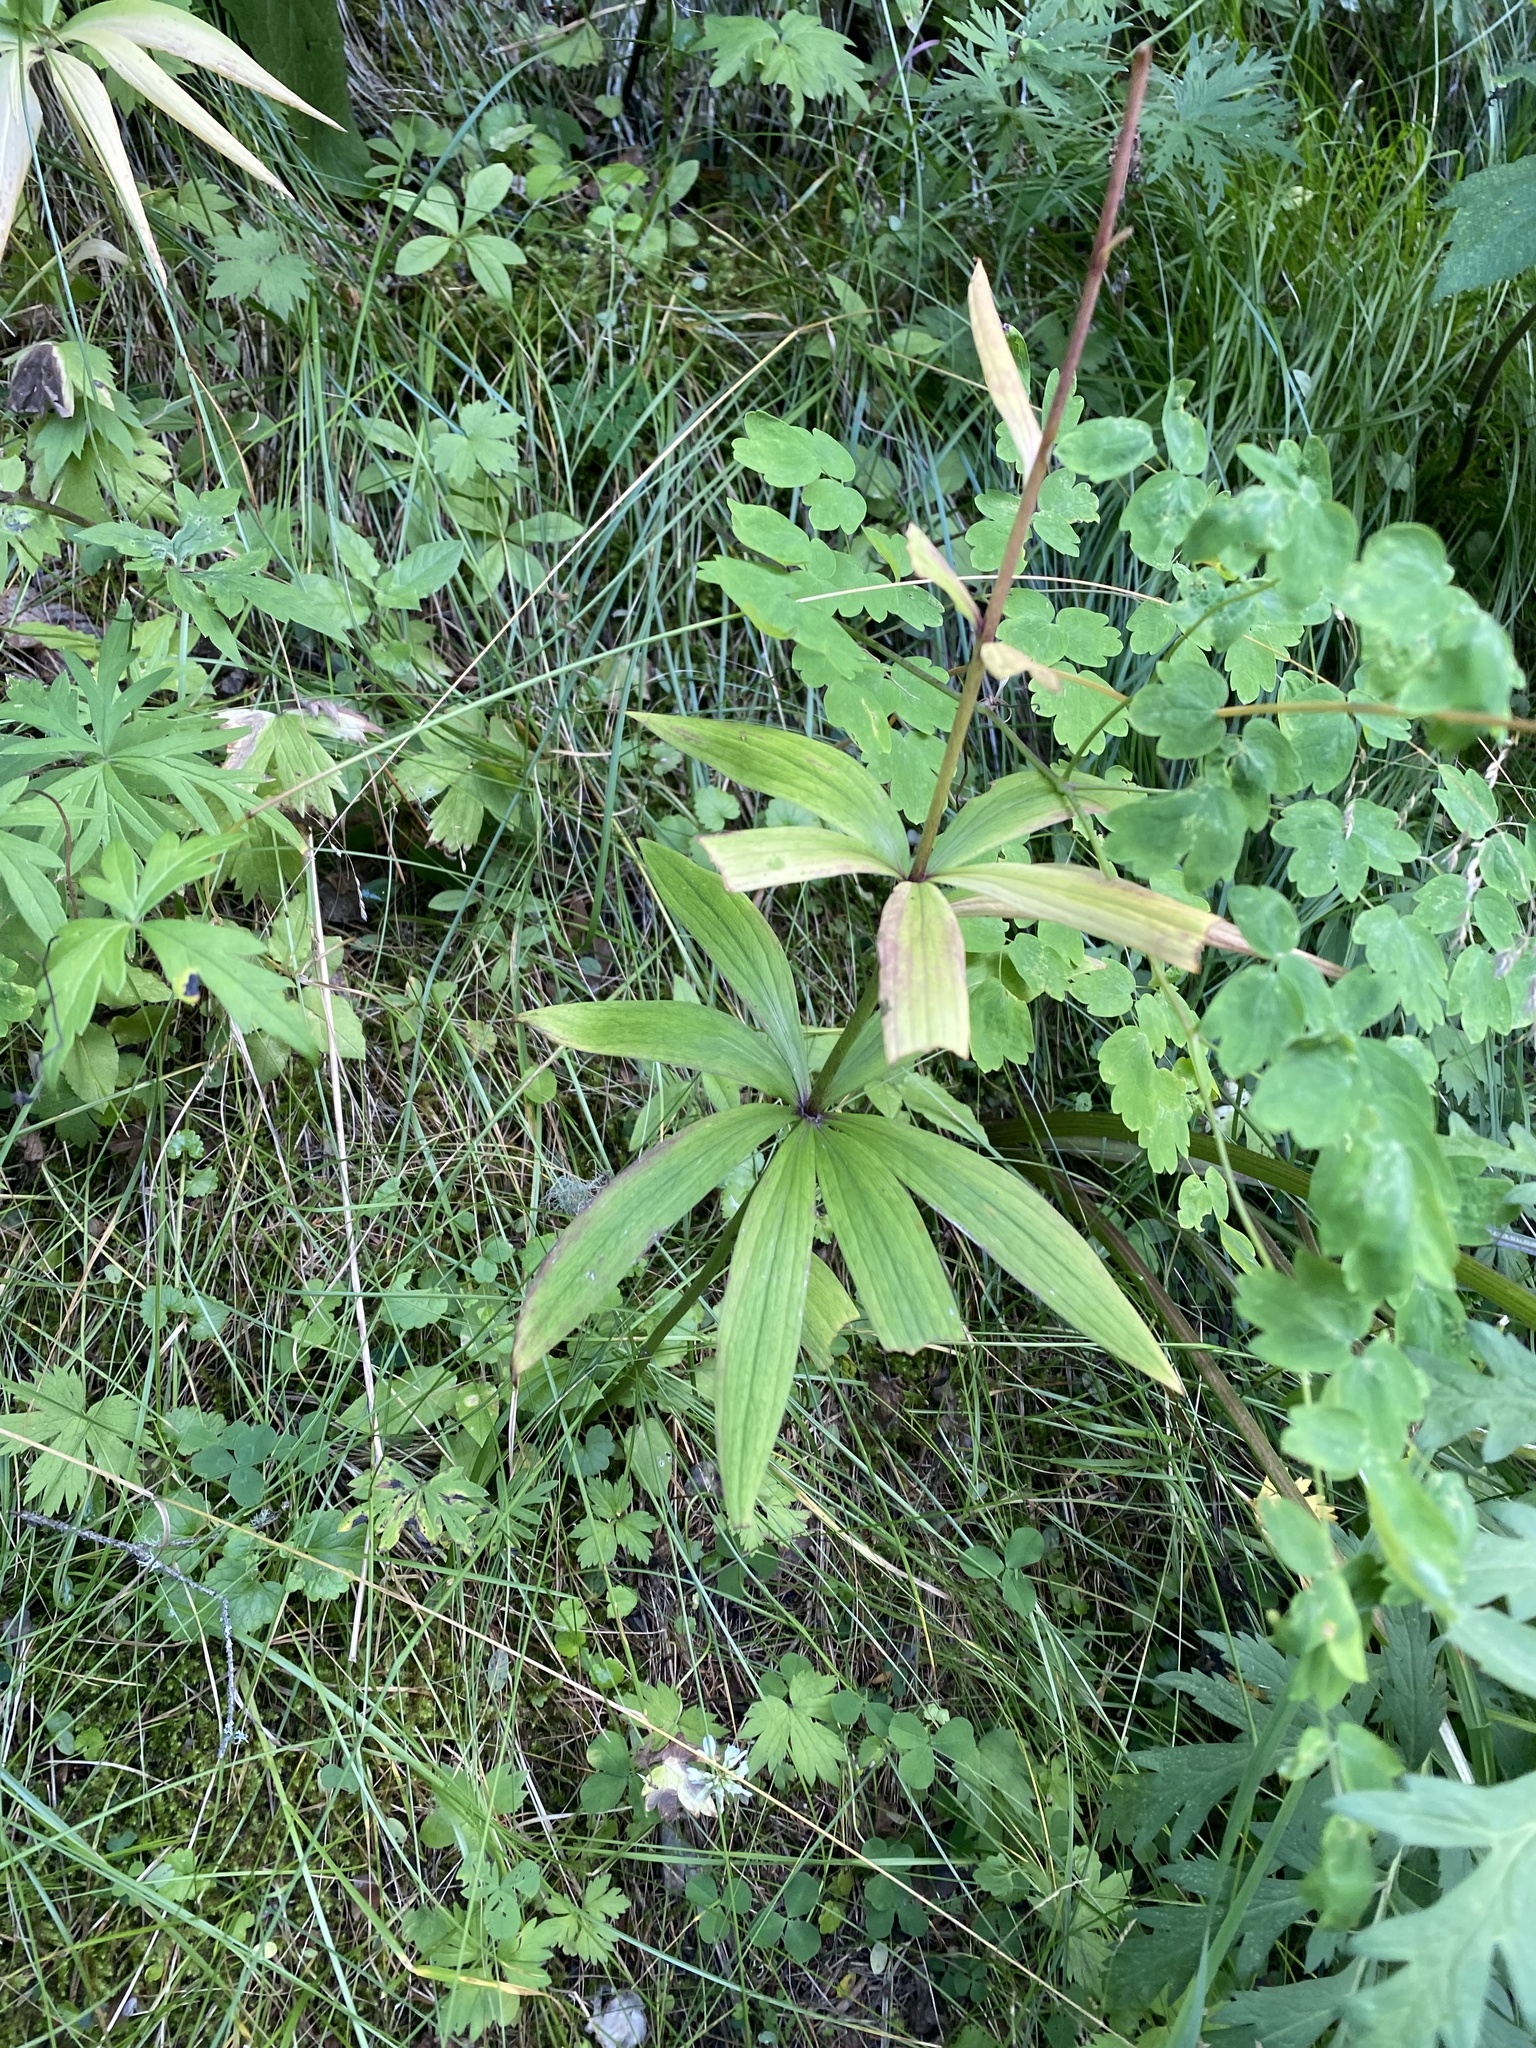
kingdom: Plantae
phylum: Tracheophyta
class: Liliopsida
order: Liliales
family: Liliaceae
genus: Lilium
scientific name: Lilium martagon
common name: Martagon lily
